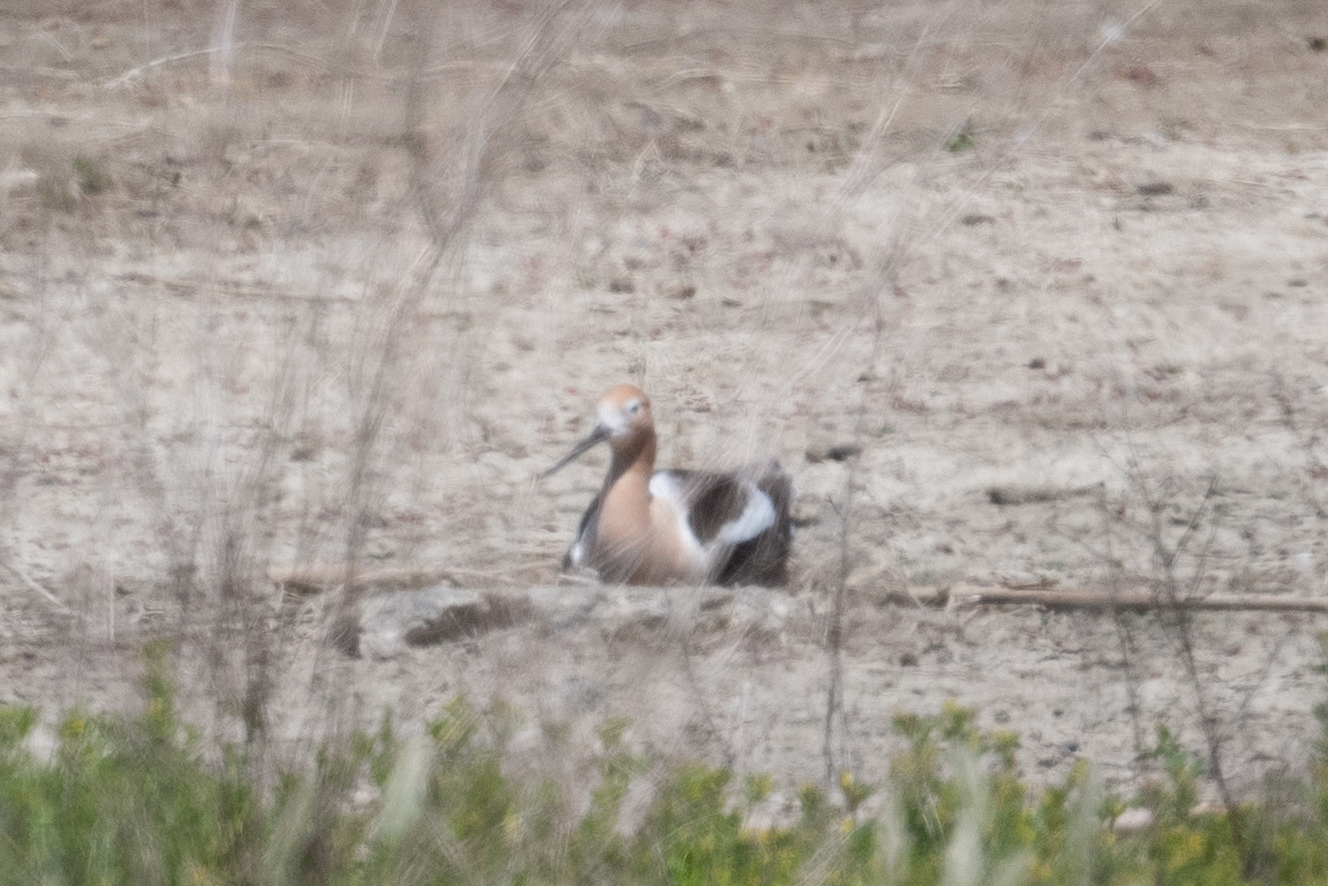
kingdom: Animalia
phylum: Chordata
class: Aves
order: Charadriiformes
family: Recurvirostridae
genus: Recurvirostra
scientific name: Recurvirostra americana
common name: American avocet
